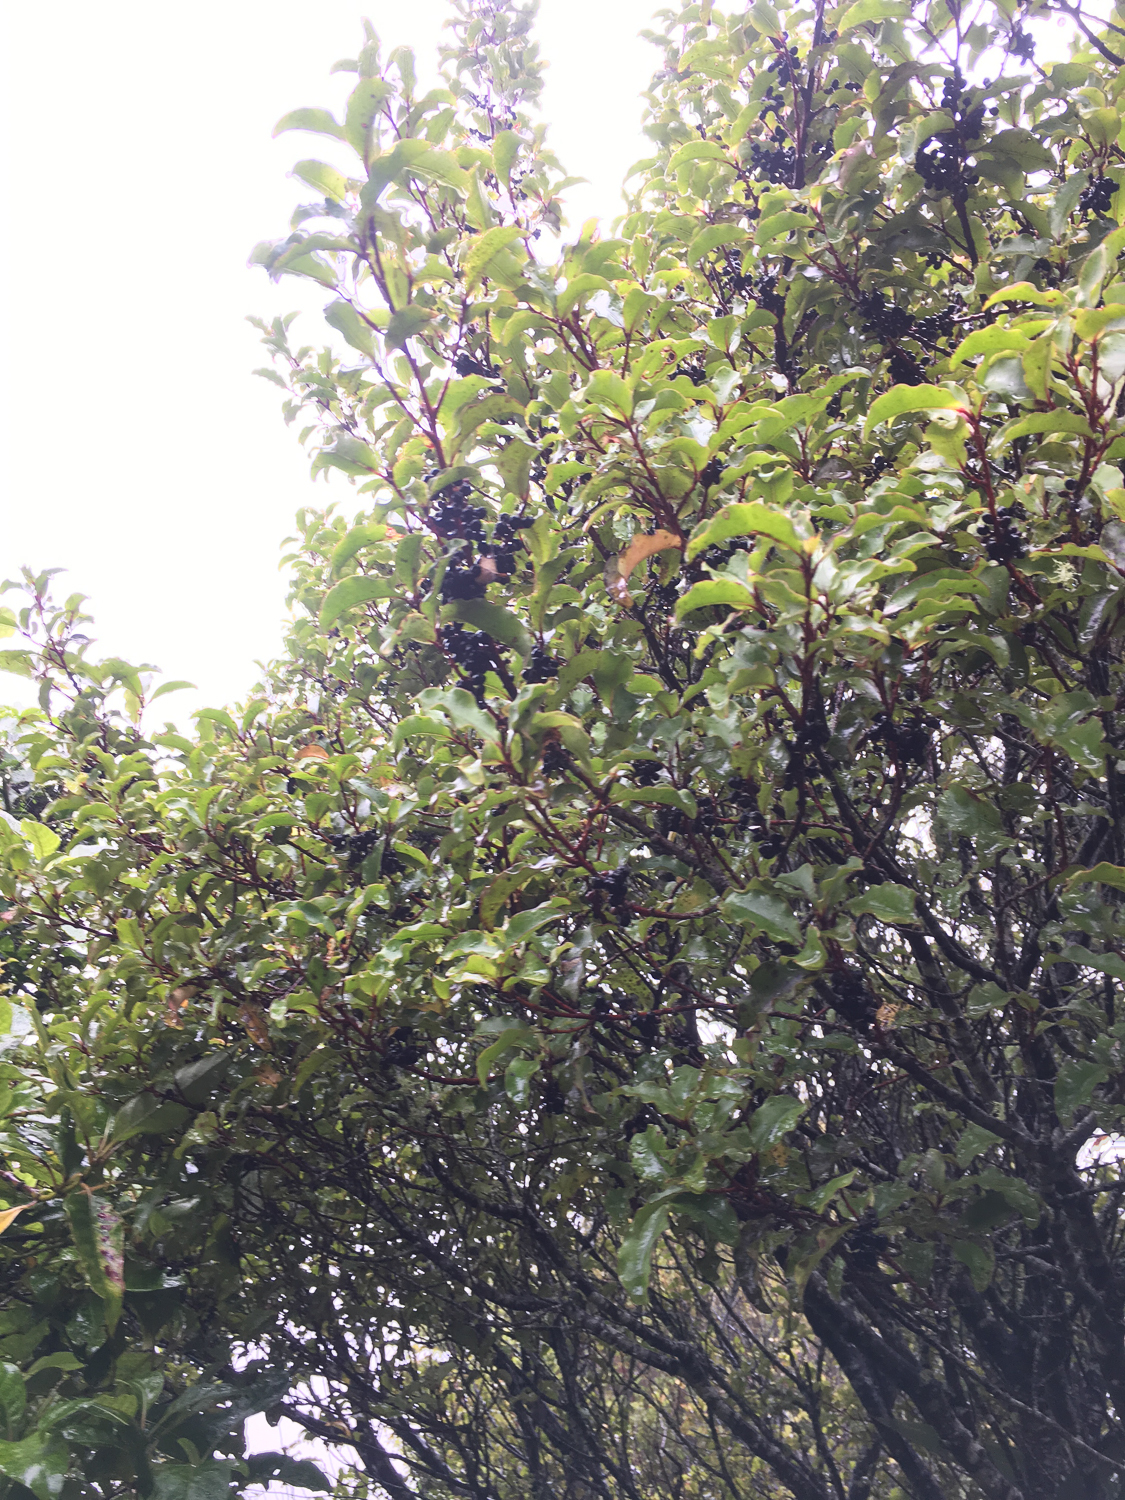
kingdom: Plantae
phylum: Tracheophyta
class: Magnoliopsida
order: Ericales
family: Primulaceae
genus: Myrsine
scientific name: Myrsine australis
